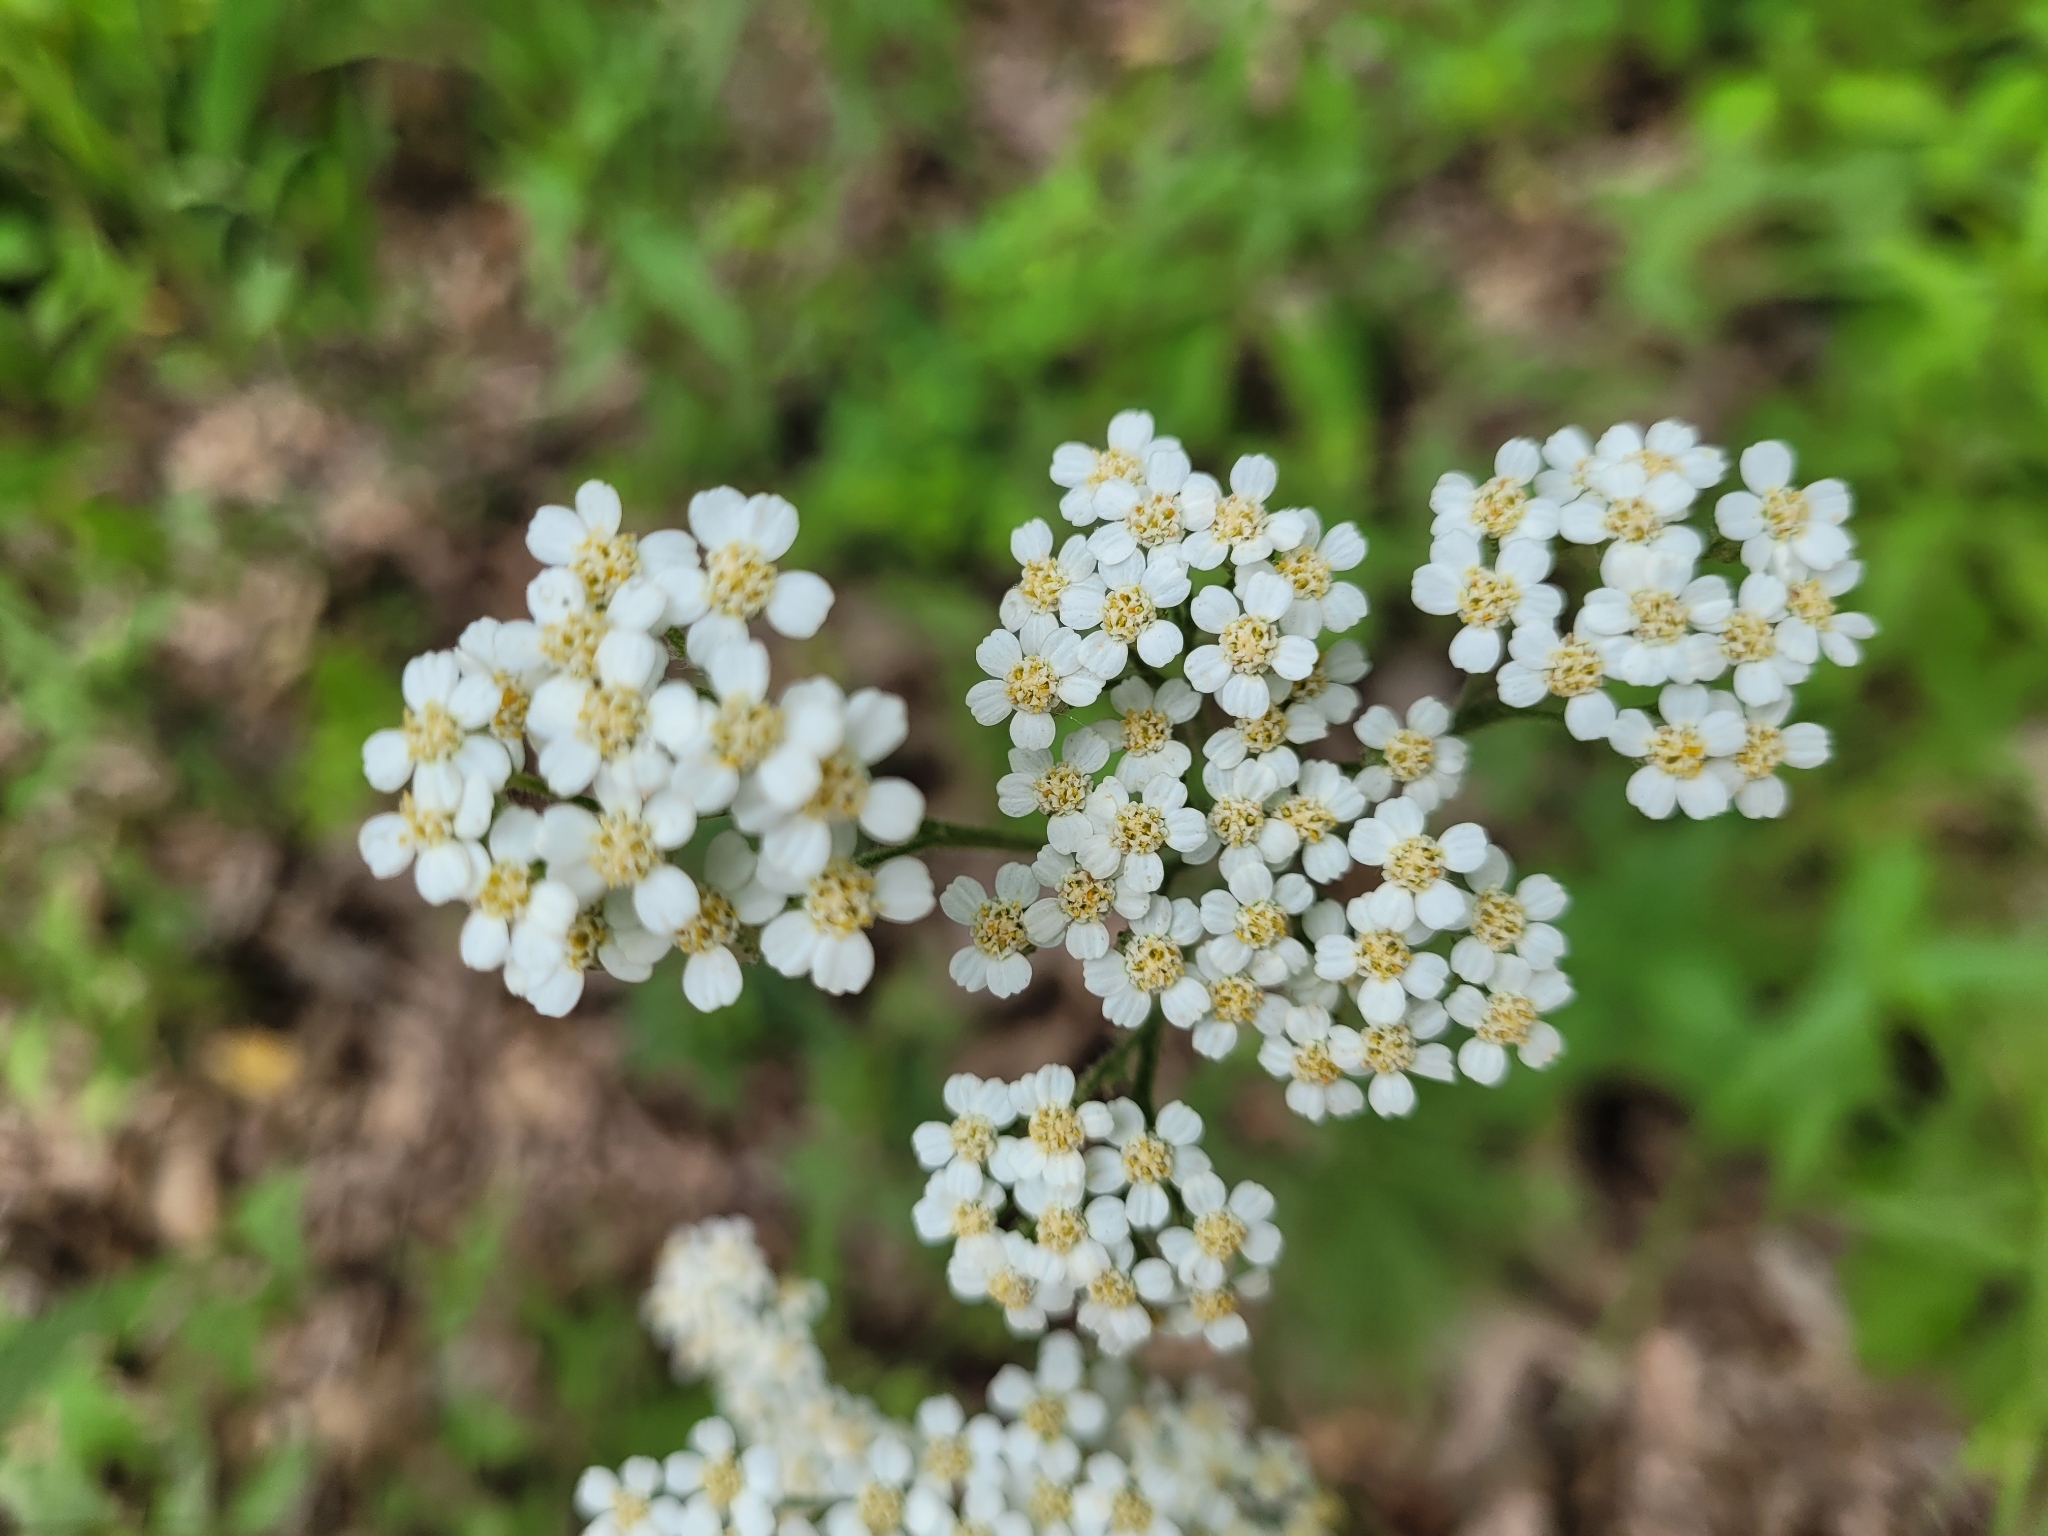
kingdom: Plantae
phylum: Tracheophyta
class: Magnoliopsida
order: Asterales
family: Asteraceae
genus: Achillea
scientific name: Achillea millefolium
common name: Yarrow
